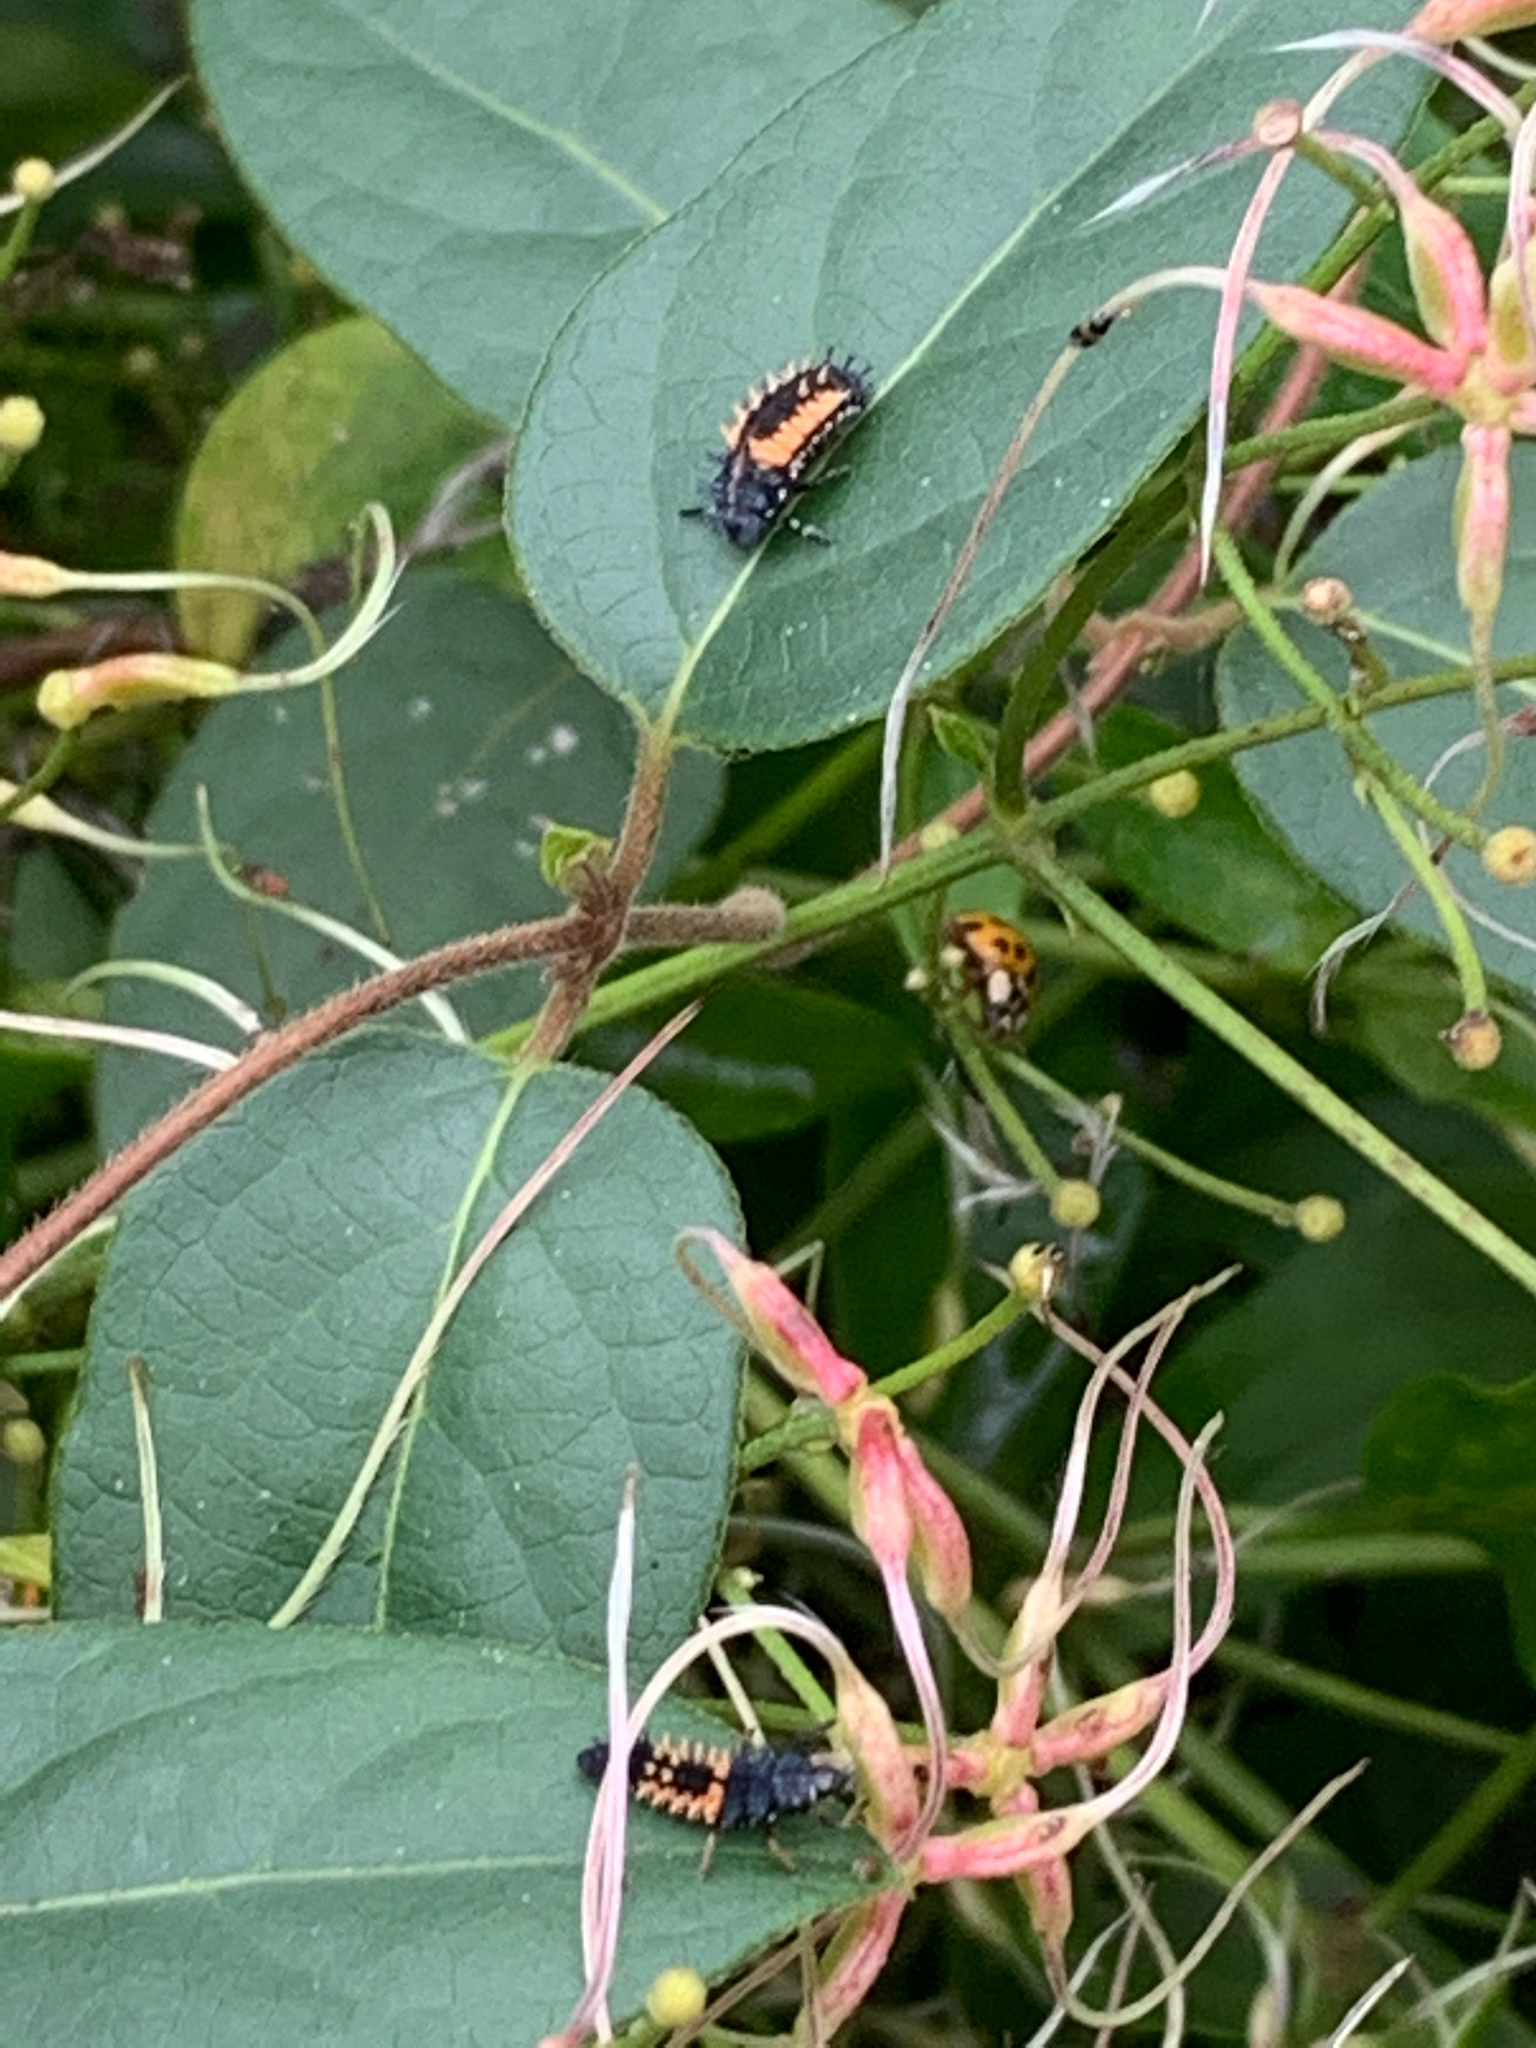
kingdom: Animalia
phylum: Arthropoda
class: Insecta
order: Coleoptera
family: Coccinellidae
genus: Harmonia
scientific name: Harmonia axyridis
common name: Harlequin ladybird
